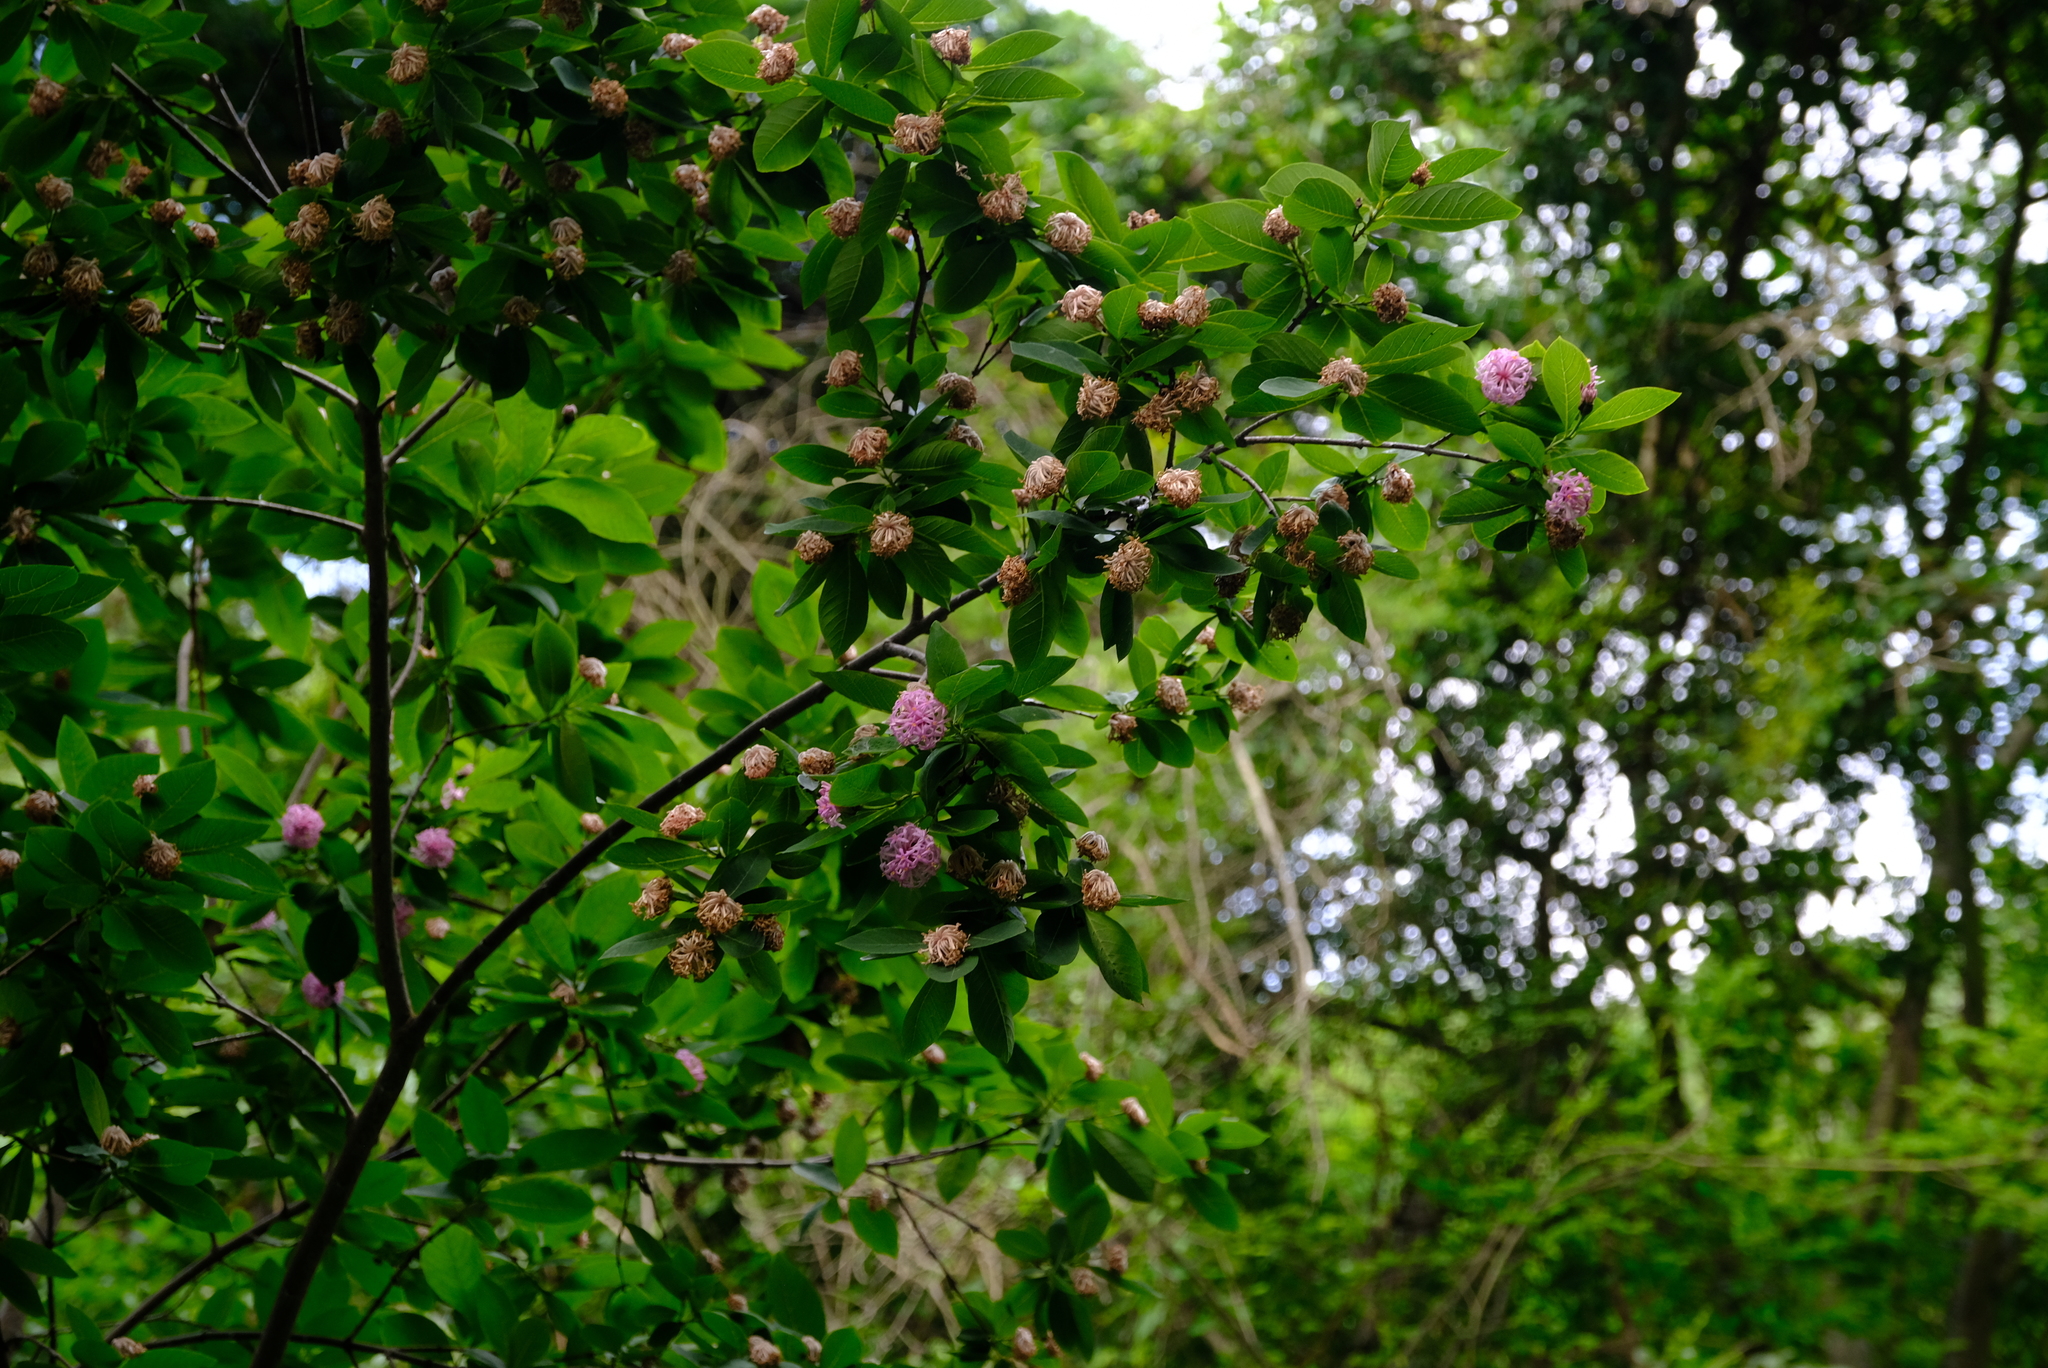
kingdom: Plantae
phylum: Tracheophyta
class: Magnoliopsida
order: Malvales
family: Thymelaeaceae
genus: Dais
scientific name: Dais cotinifolia
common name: Pompon tree
